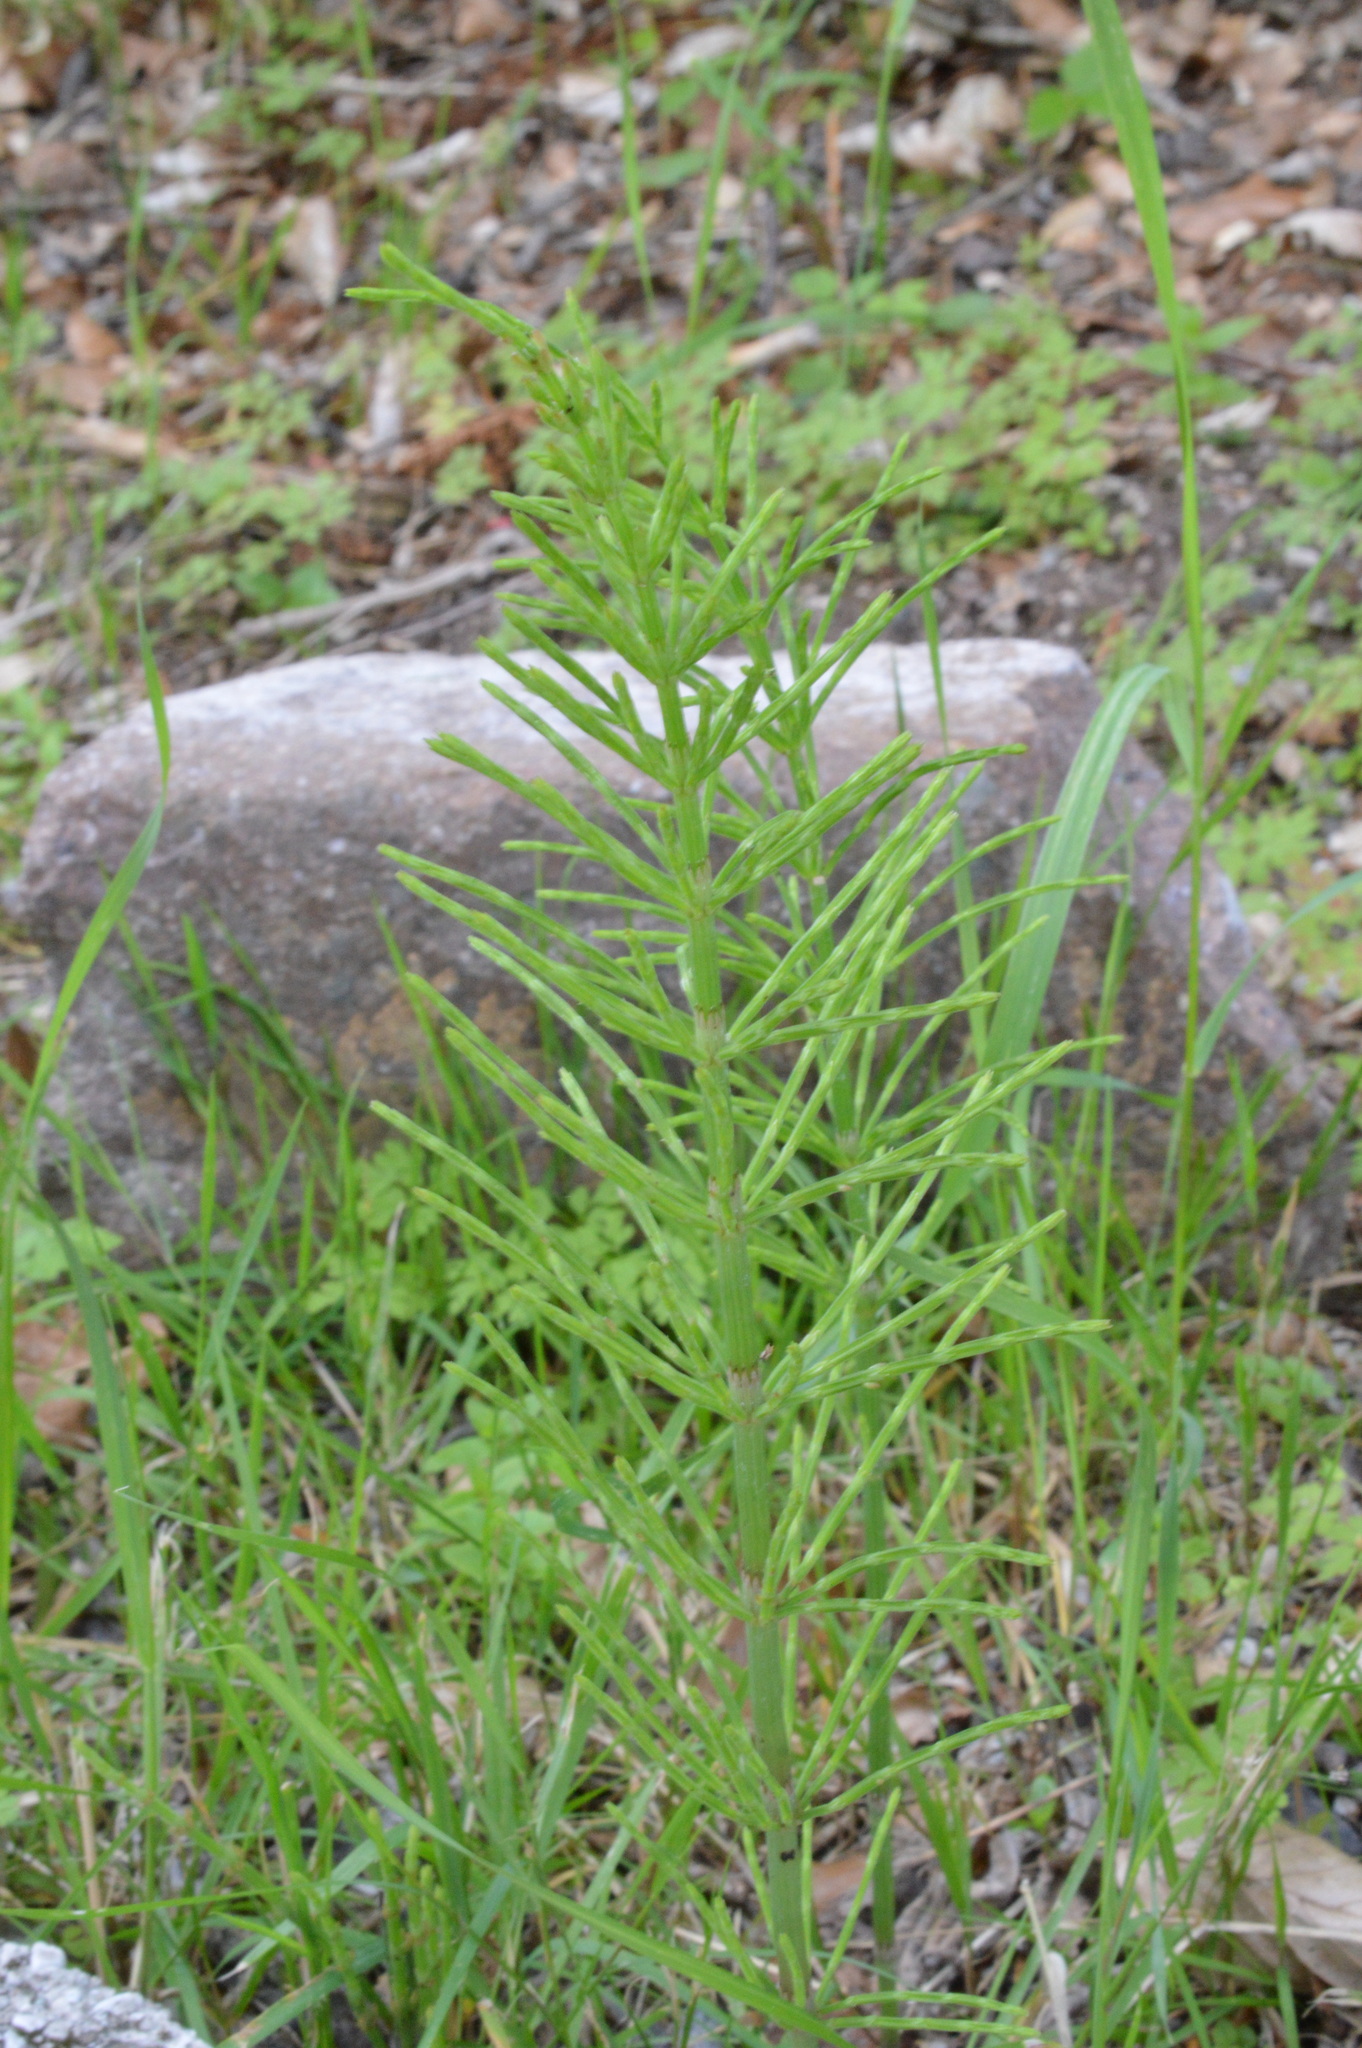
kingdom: Plantae
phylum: Tracheophyta
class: Polypodiopsida
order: Equisetales
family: Equisetaceae
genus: Equisetum
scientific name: Equisetum arvense
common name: Field horsetail
